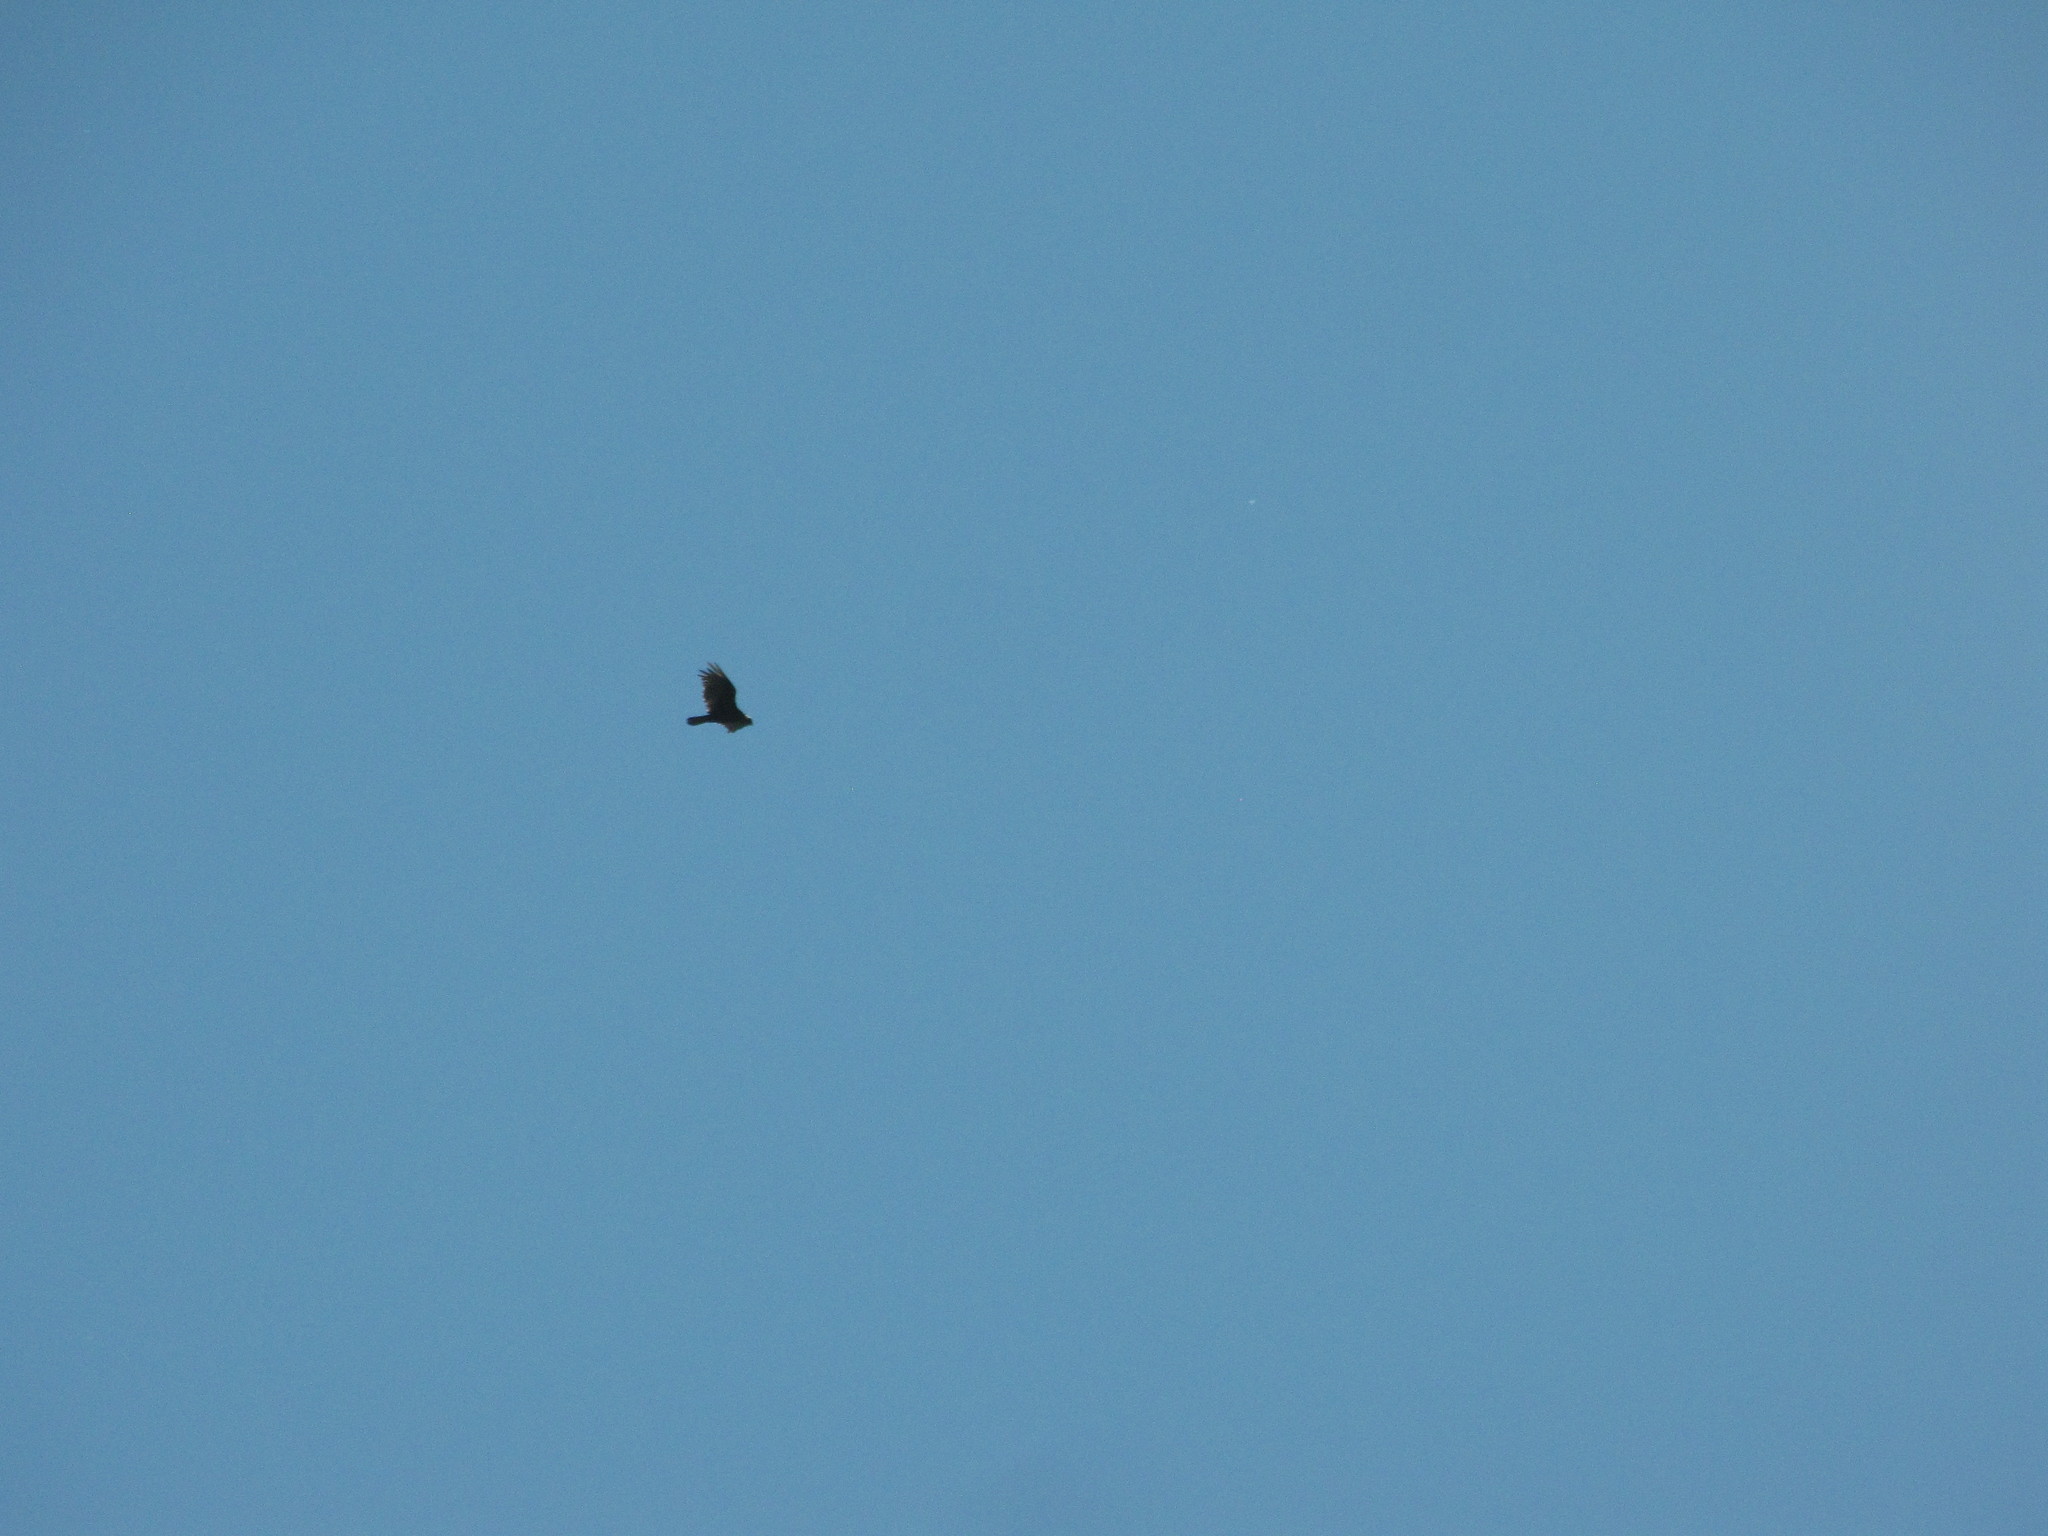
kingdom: Animalia
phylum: Chordata
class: Aves
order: Accipitriformes
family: Cathartidae
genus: Cathartes
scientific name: Cathartes aura
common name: Turkey vulture
